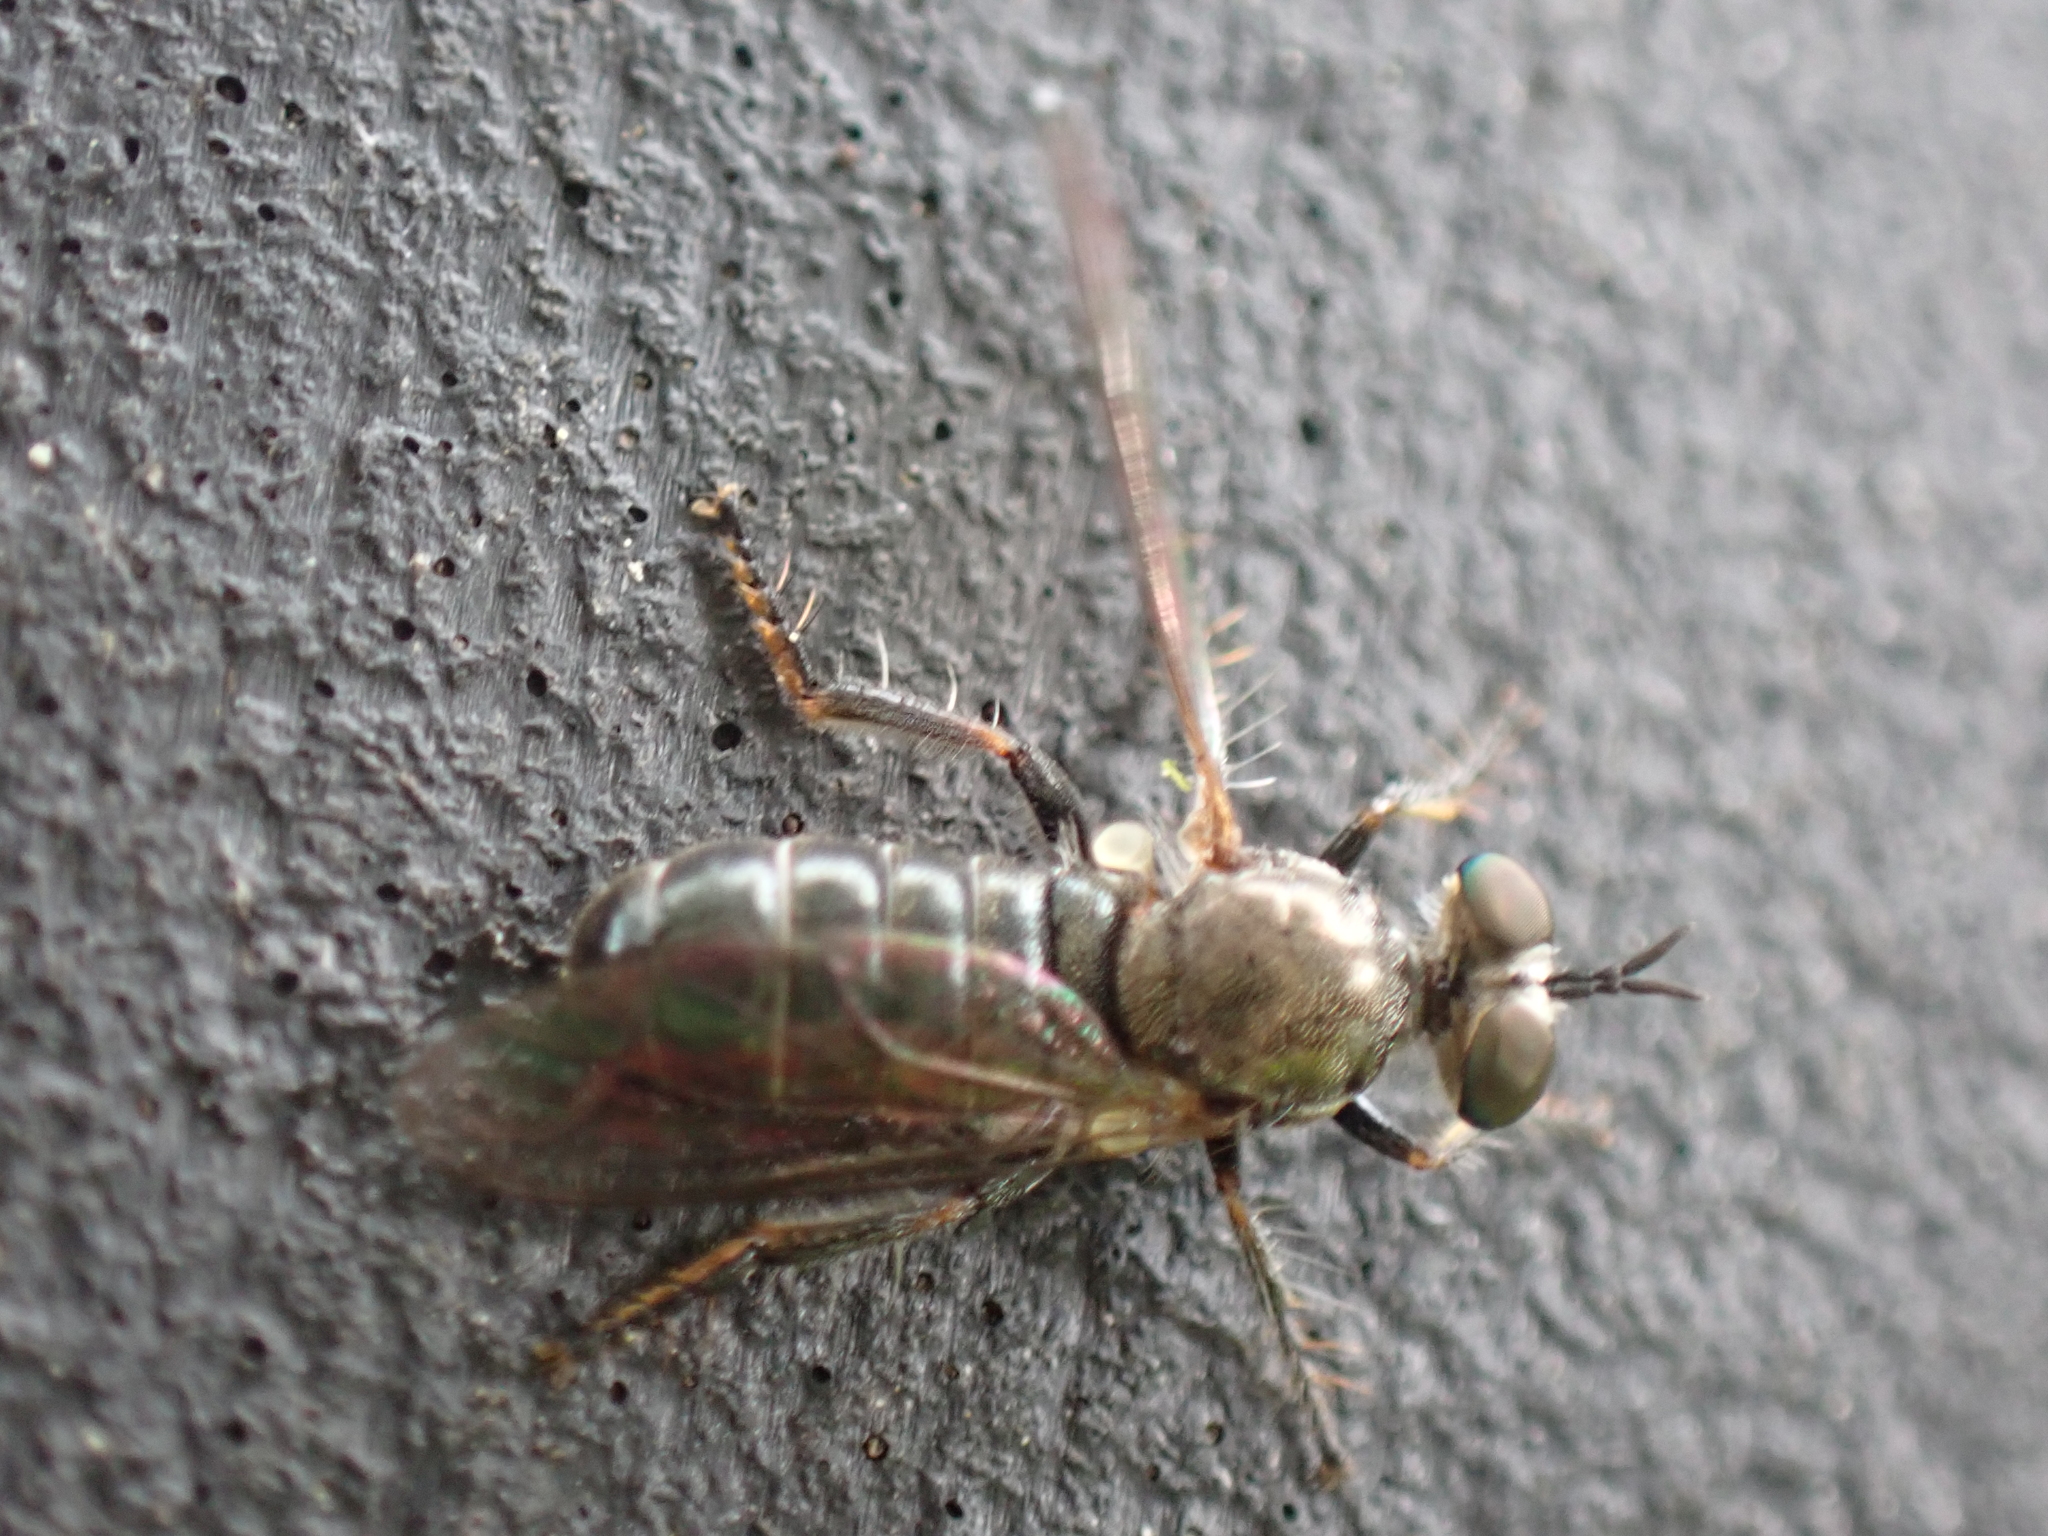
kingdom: Animalia
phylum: Arthropoda
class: Insecta
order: Diptera
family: Asilidae
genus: Atomosia
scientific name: Atomosia puella
